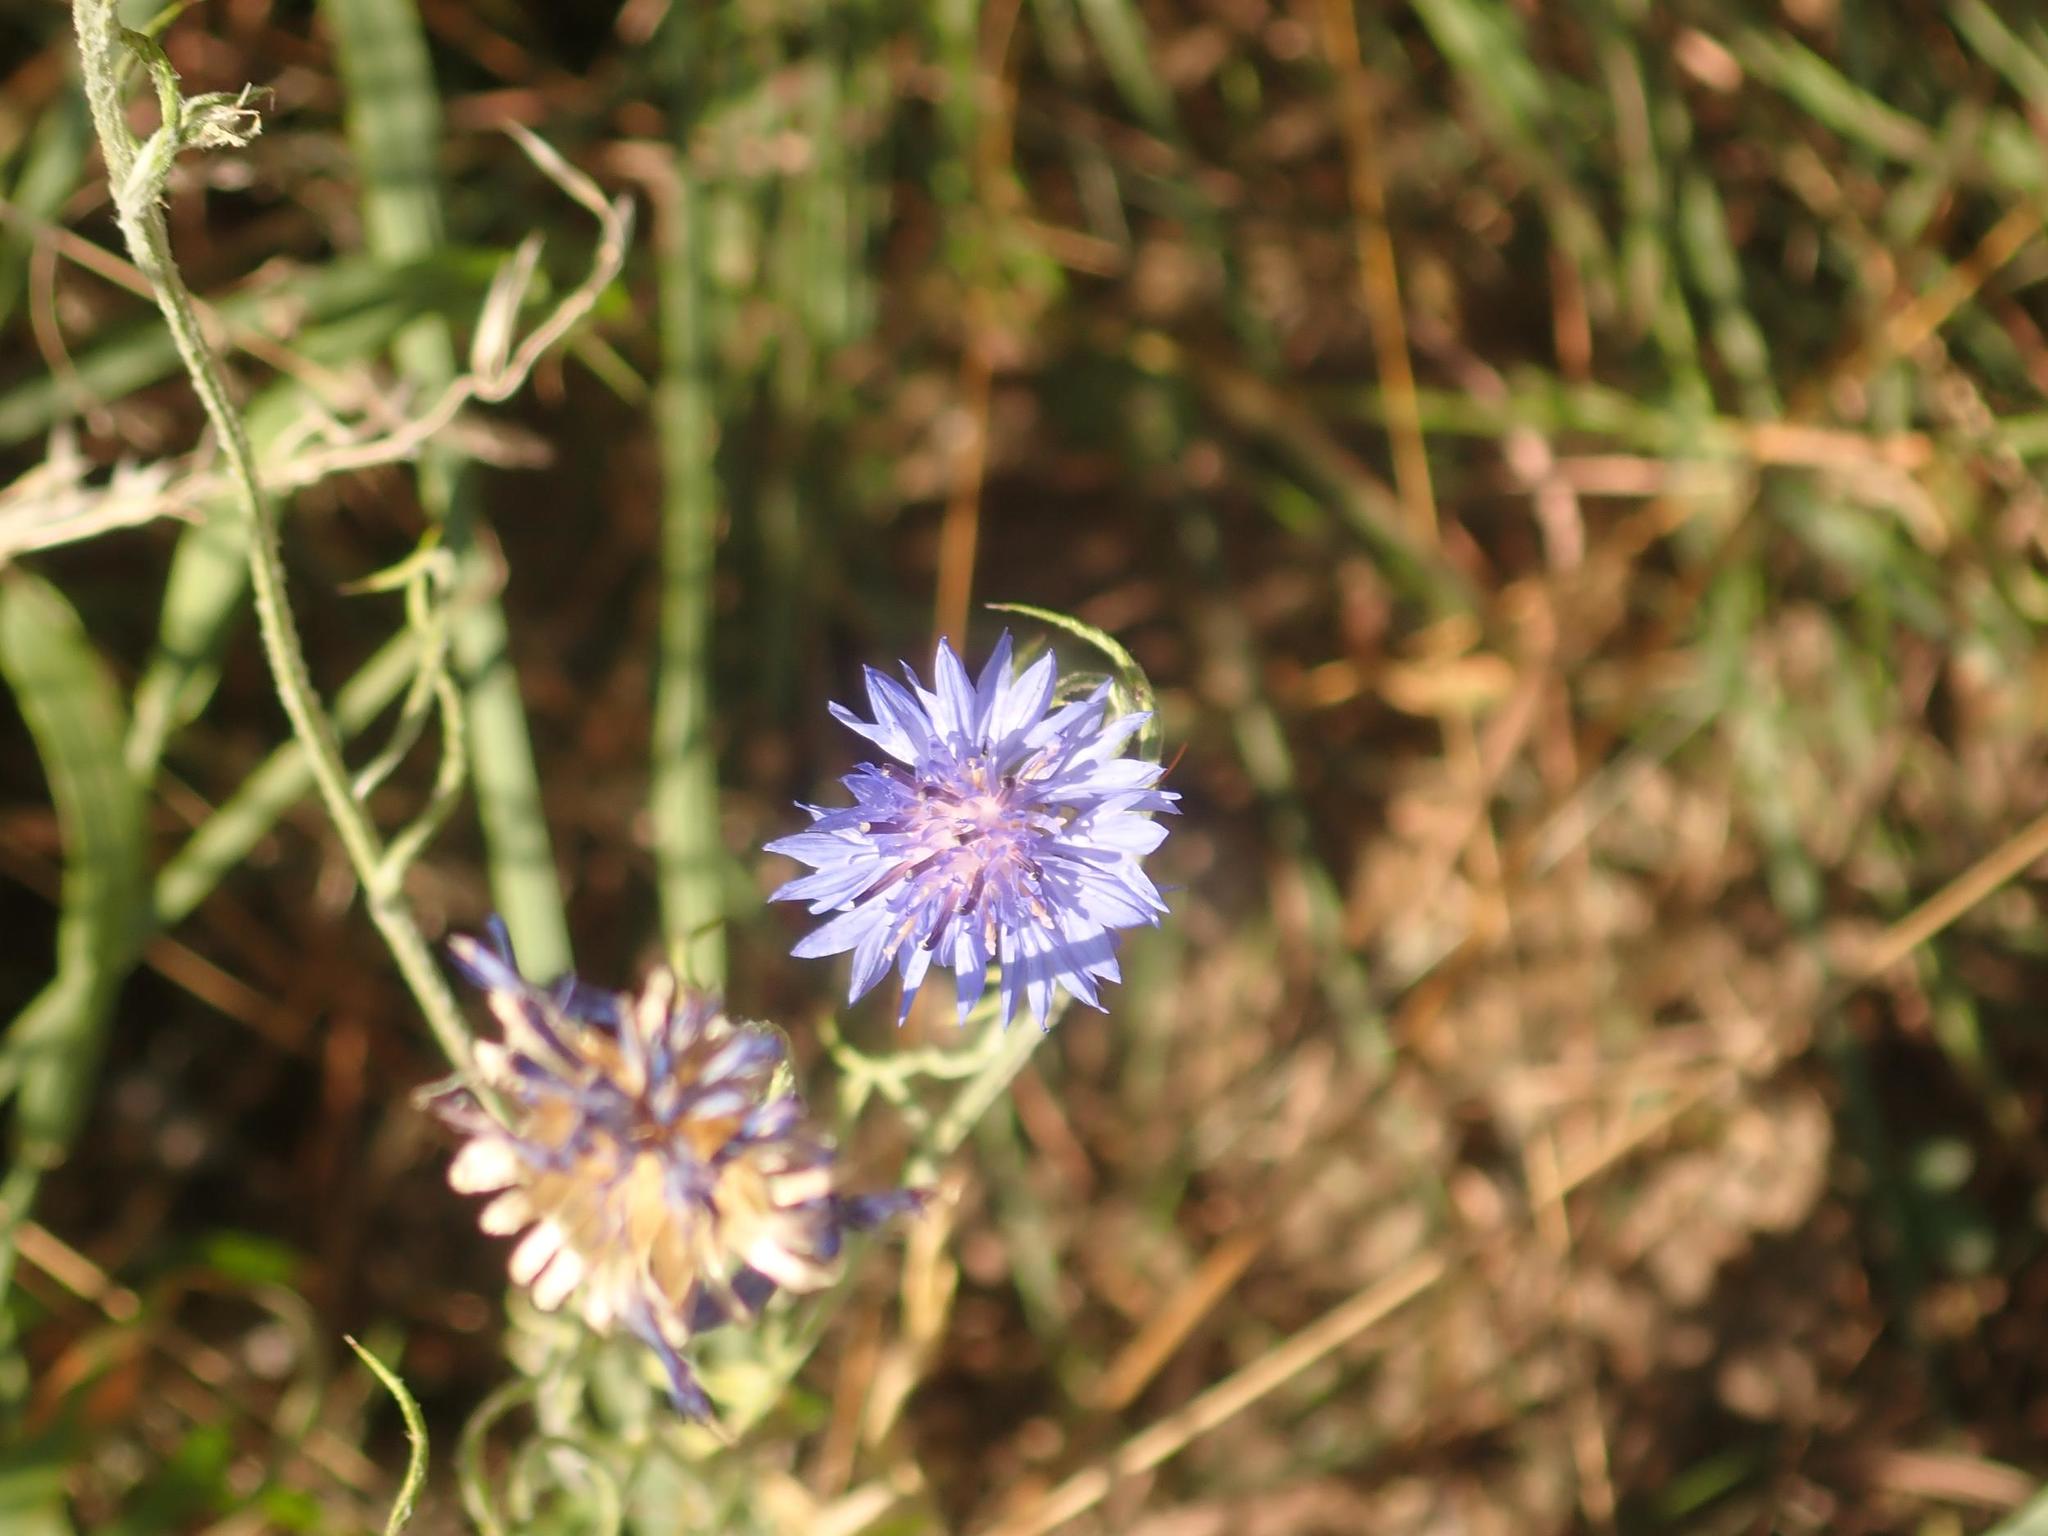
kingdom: Plantae
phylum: Tracheophyta
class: Magnoliopsida
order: Asterales
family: Asteraceae
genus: Centaurea
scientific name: Centaurea cyanus
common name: Cornflower
